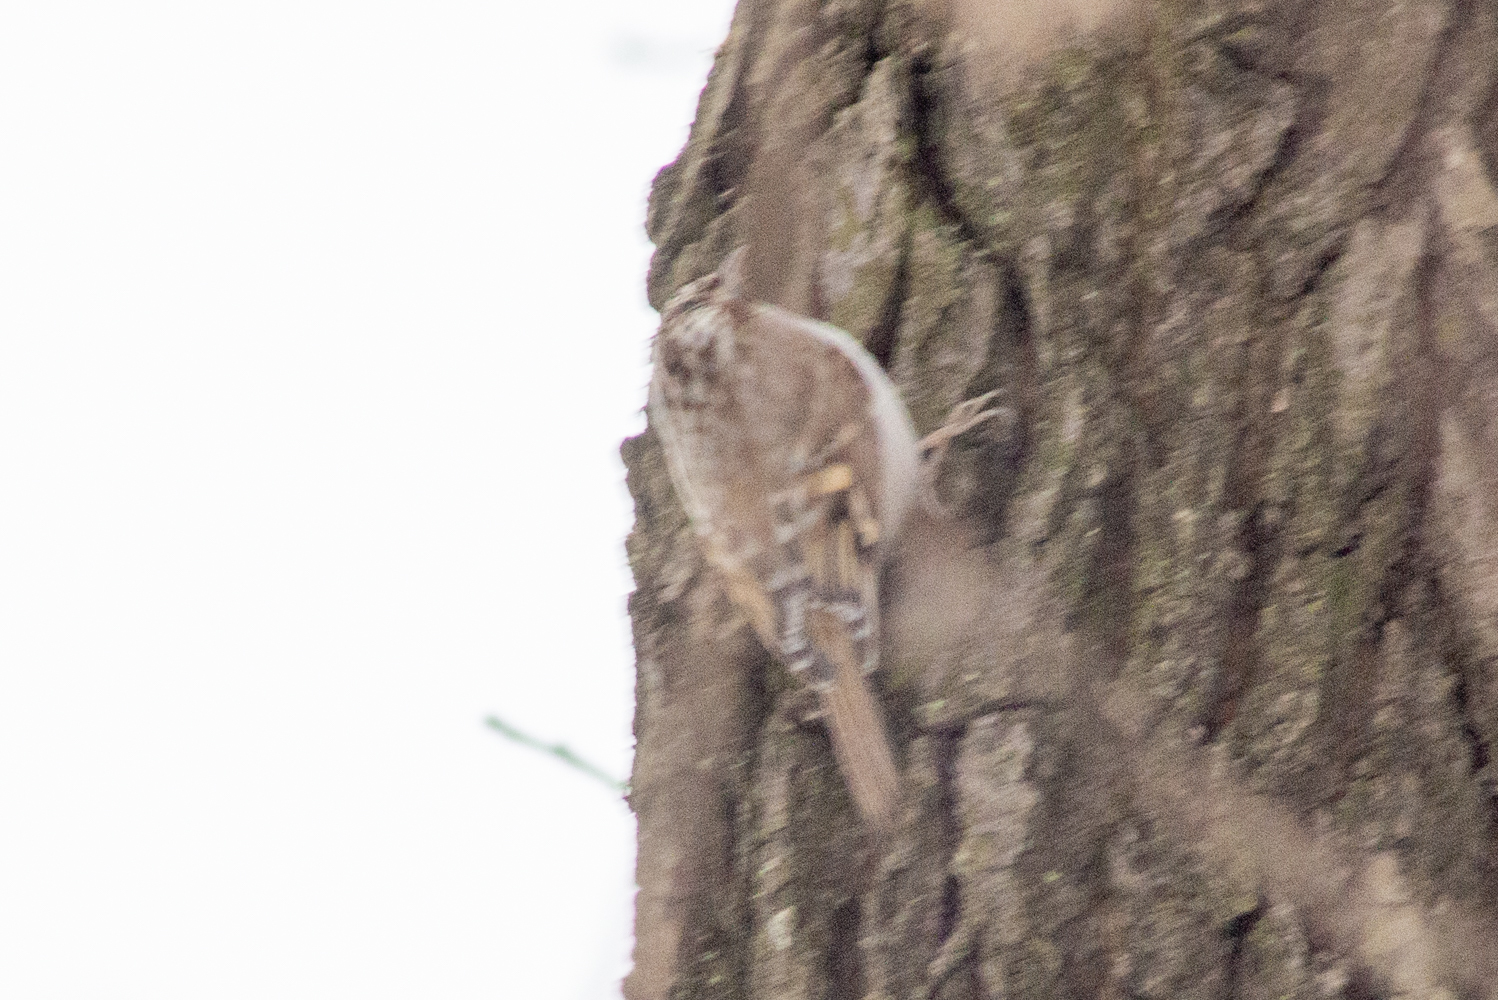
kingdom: Animalia
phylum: Chordata
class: Aves
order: Passeriformes
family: Certhiidae
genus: Certhia
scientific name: Certhia familiaris
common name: Eurasian treecreeper
